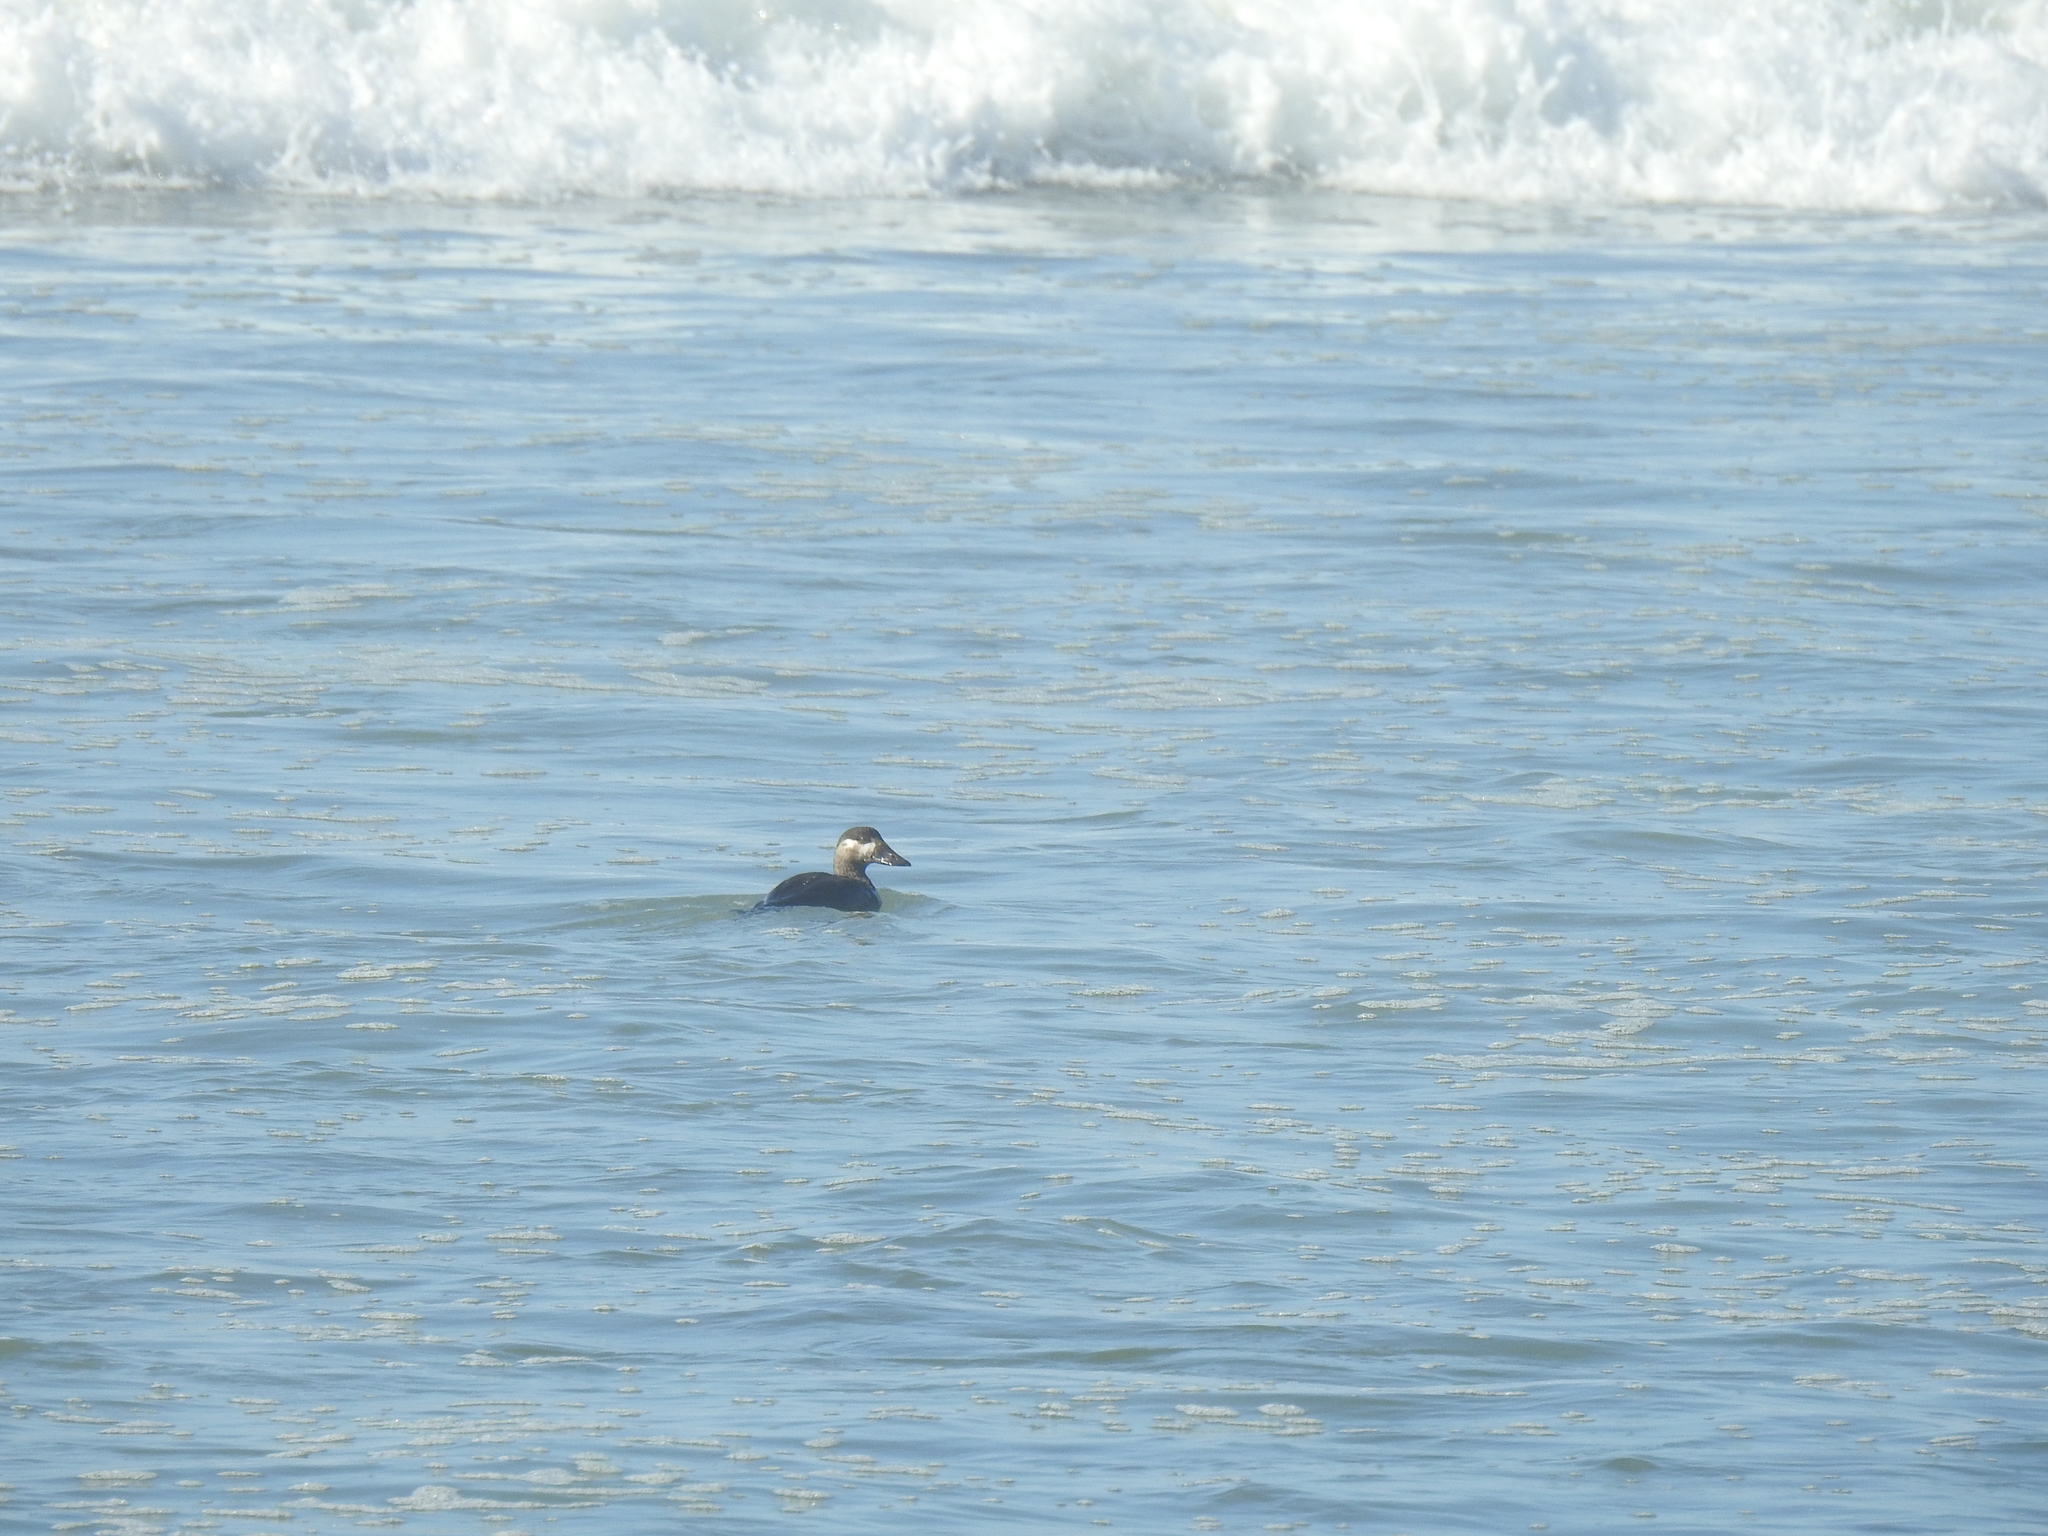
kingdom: Animalia
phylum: Chordata
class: Aves
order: Anseriformes
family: Anatidae
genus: Melanitta
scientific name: Melanitta perspicillata
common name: Surf scoter
